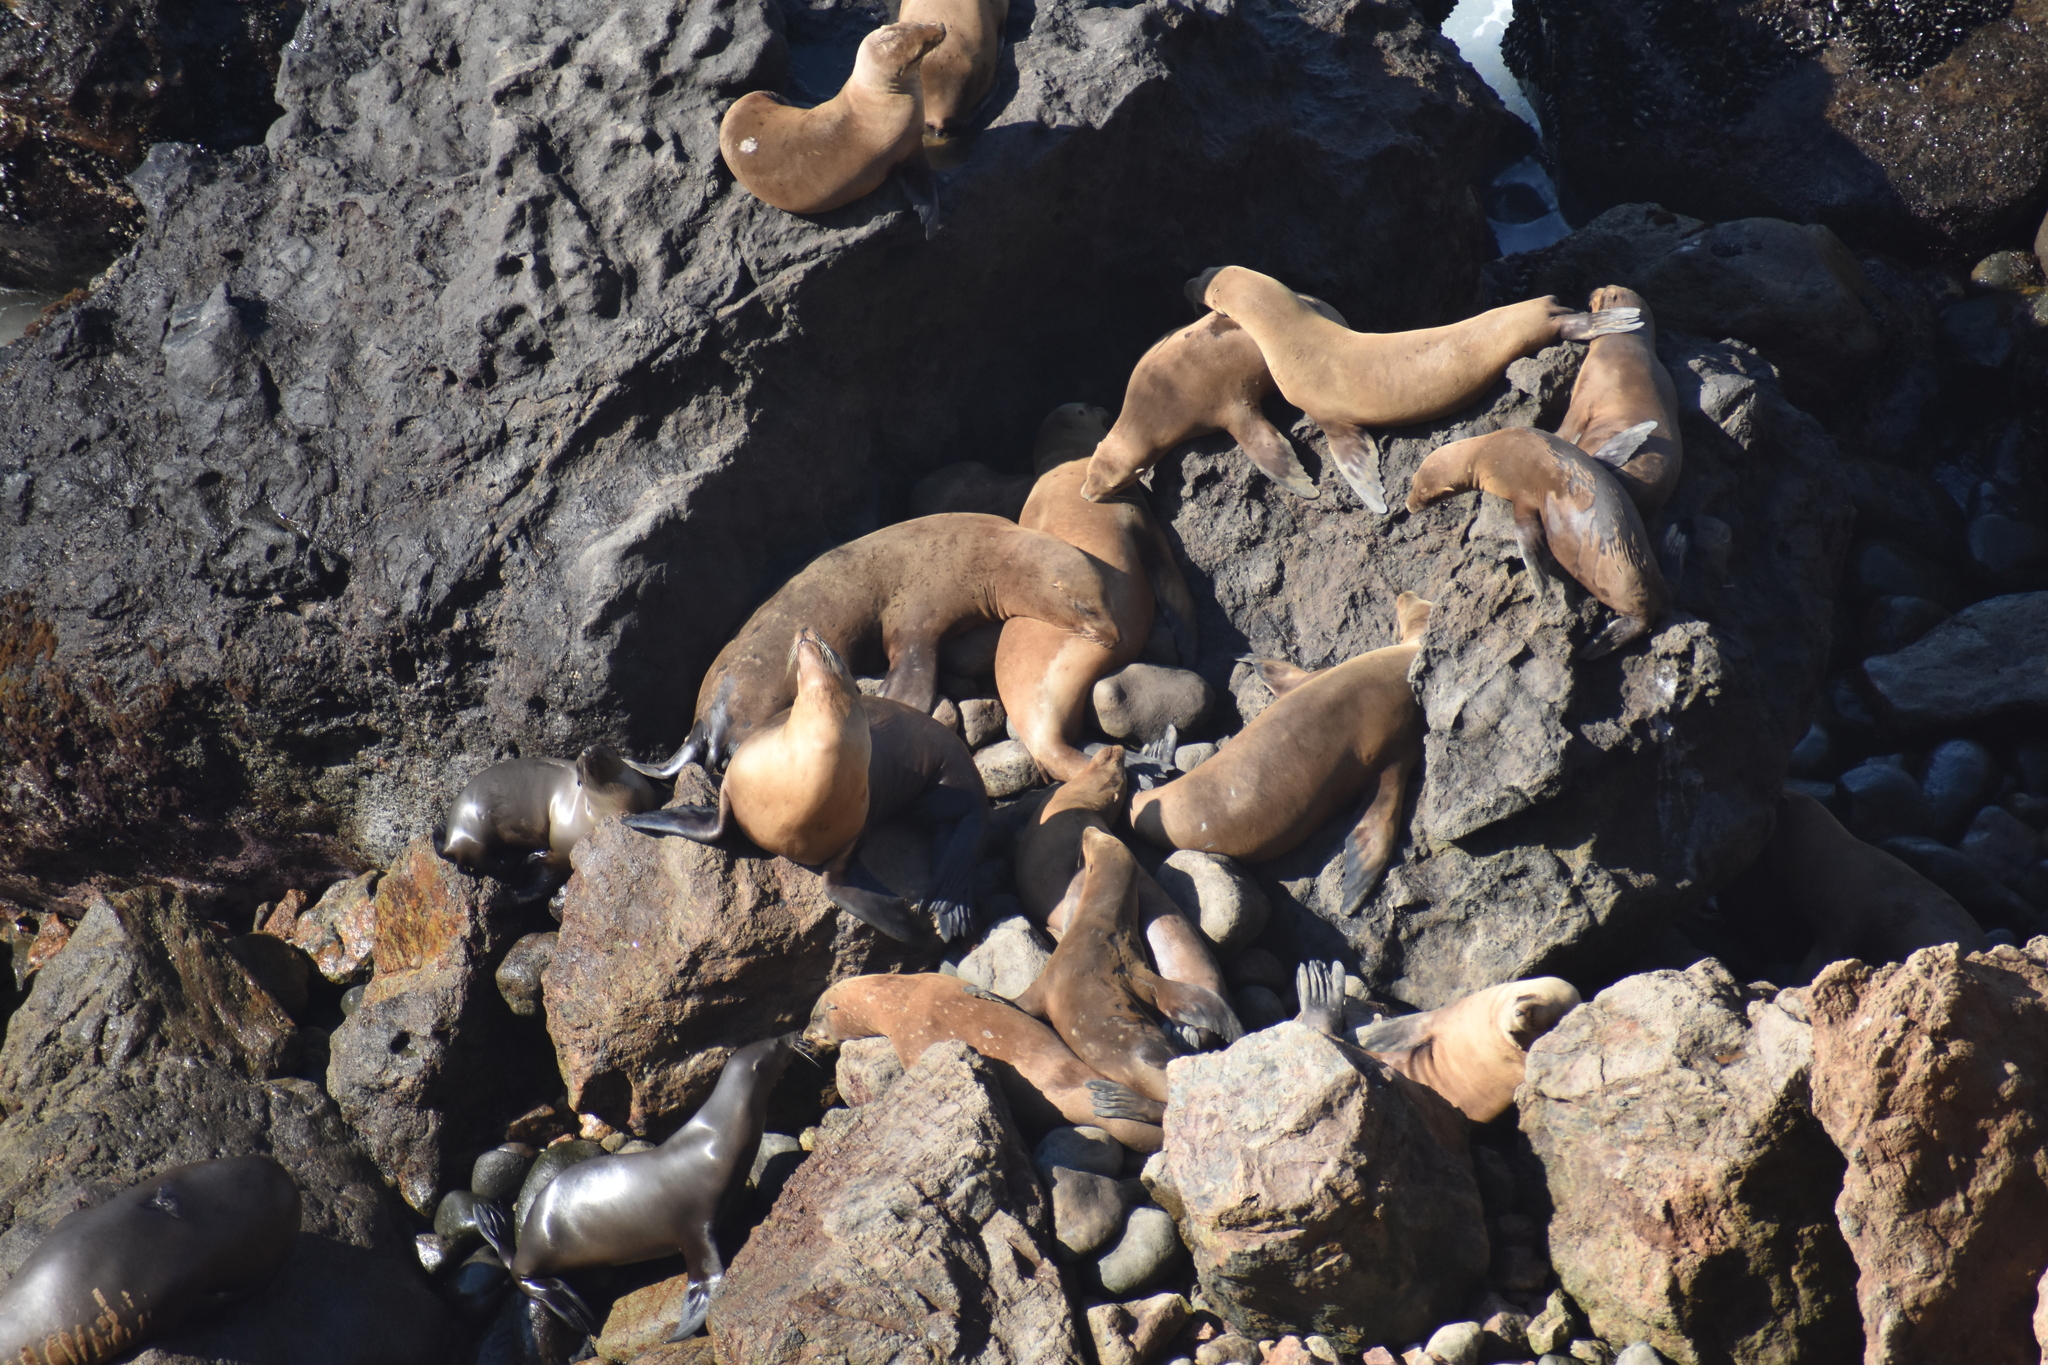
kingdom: Animalia
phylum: Chordata
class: Mammalia
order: Carnivora
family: Otariidae
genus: Zalophus
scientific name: Zalophus californianus
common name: California sea lion
